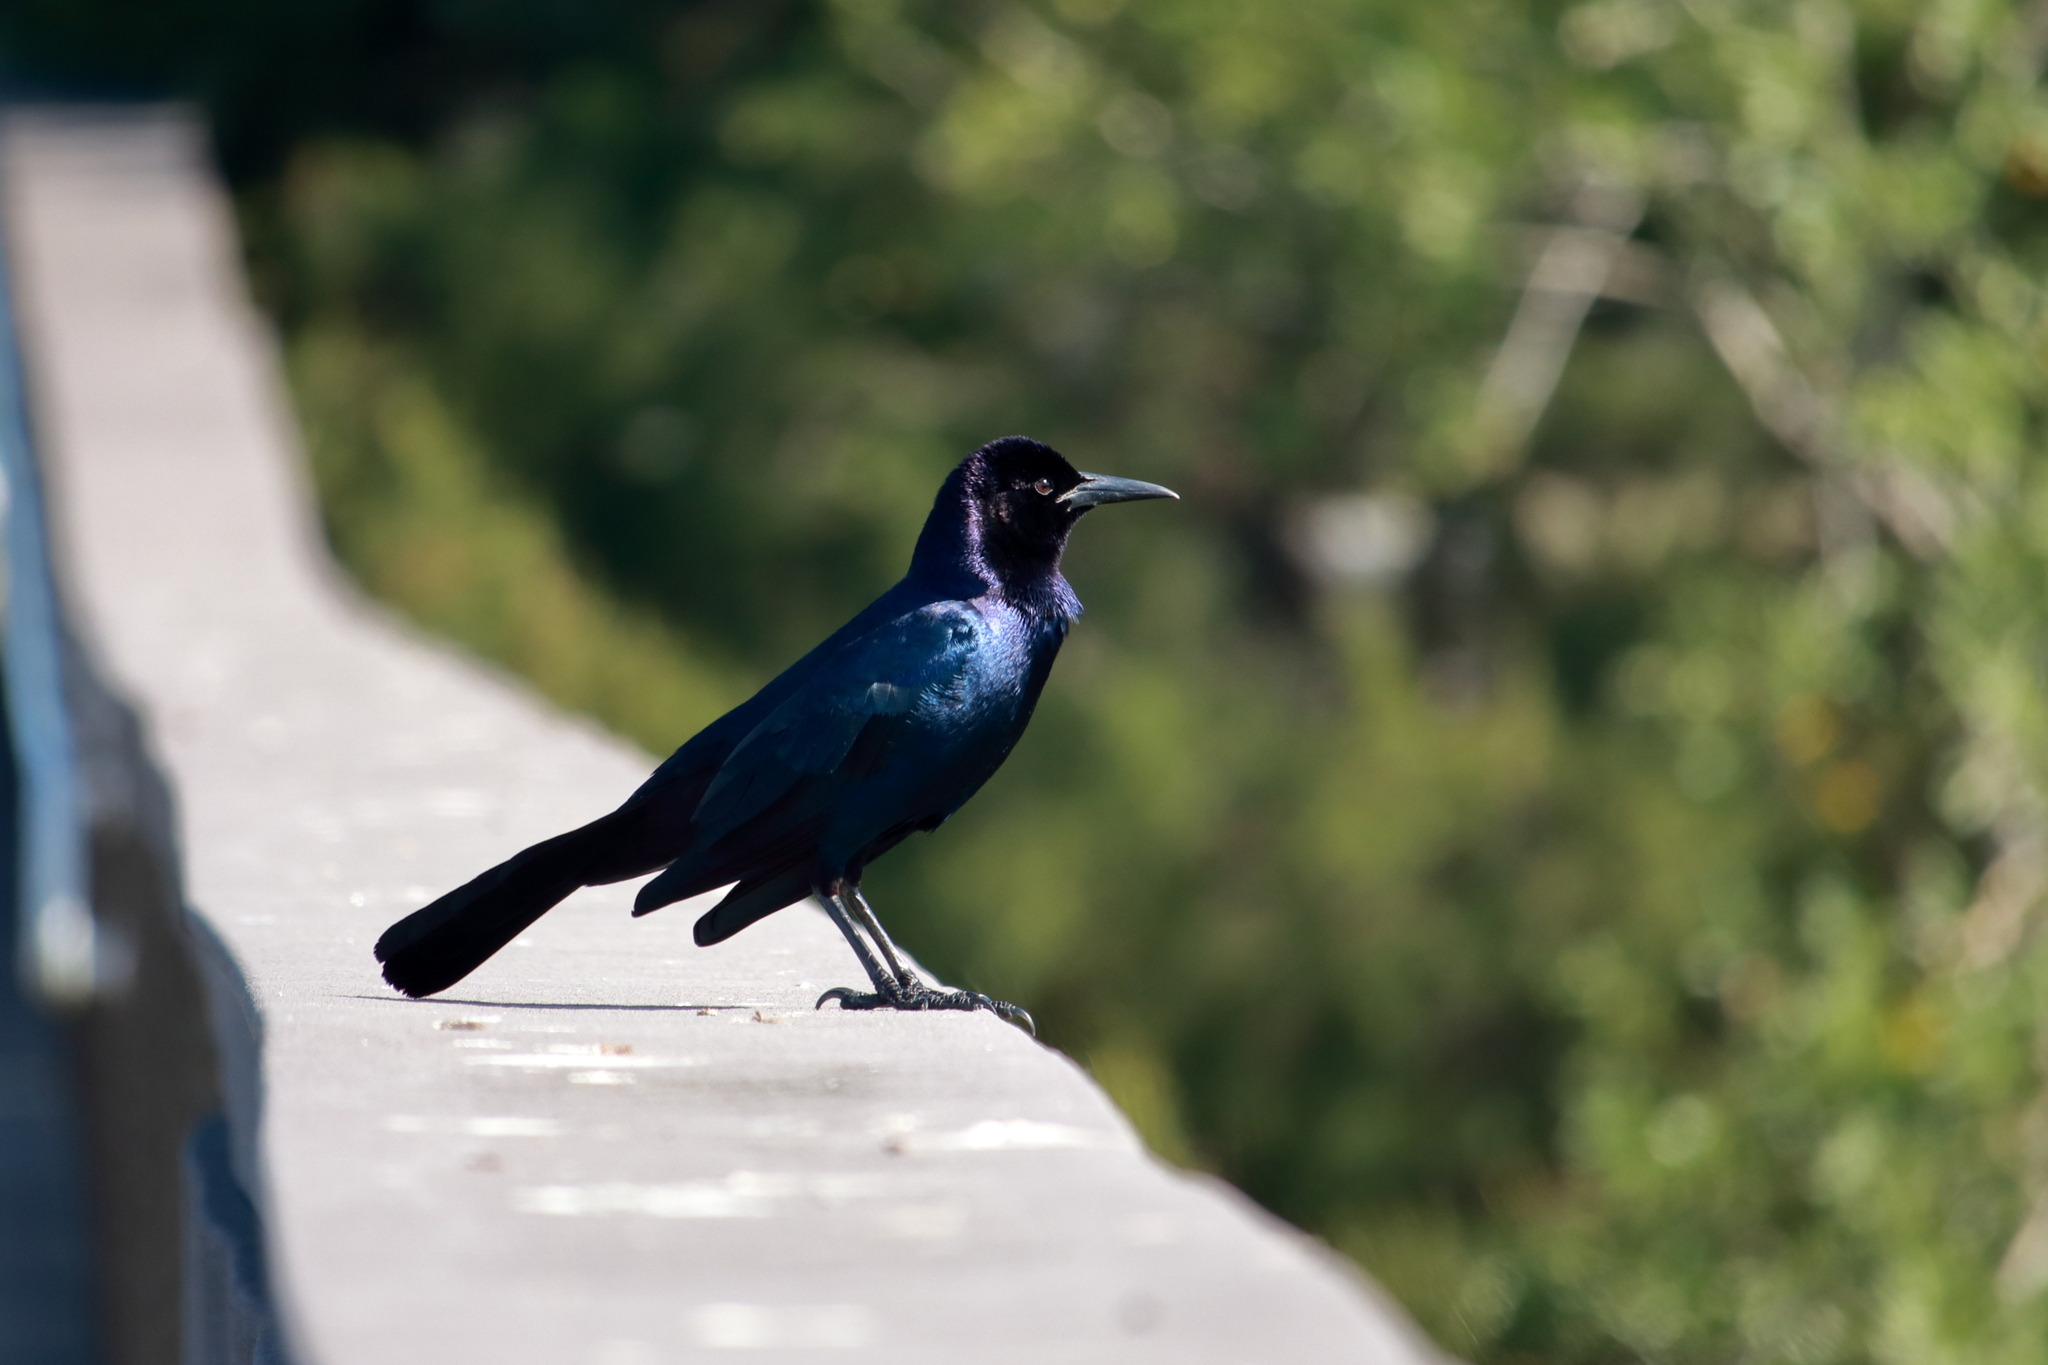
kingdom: Animalia
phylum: Chordata
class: Aves
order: Passeriformes
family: Icteridae
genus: Quiscalus
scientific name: Quiscalus major
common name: Boat-tailed grackle
